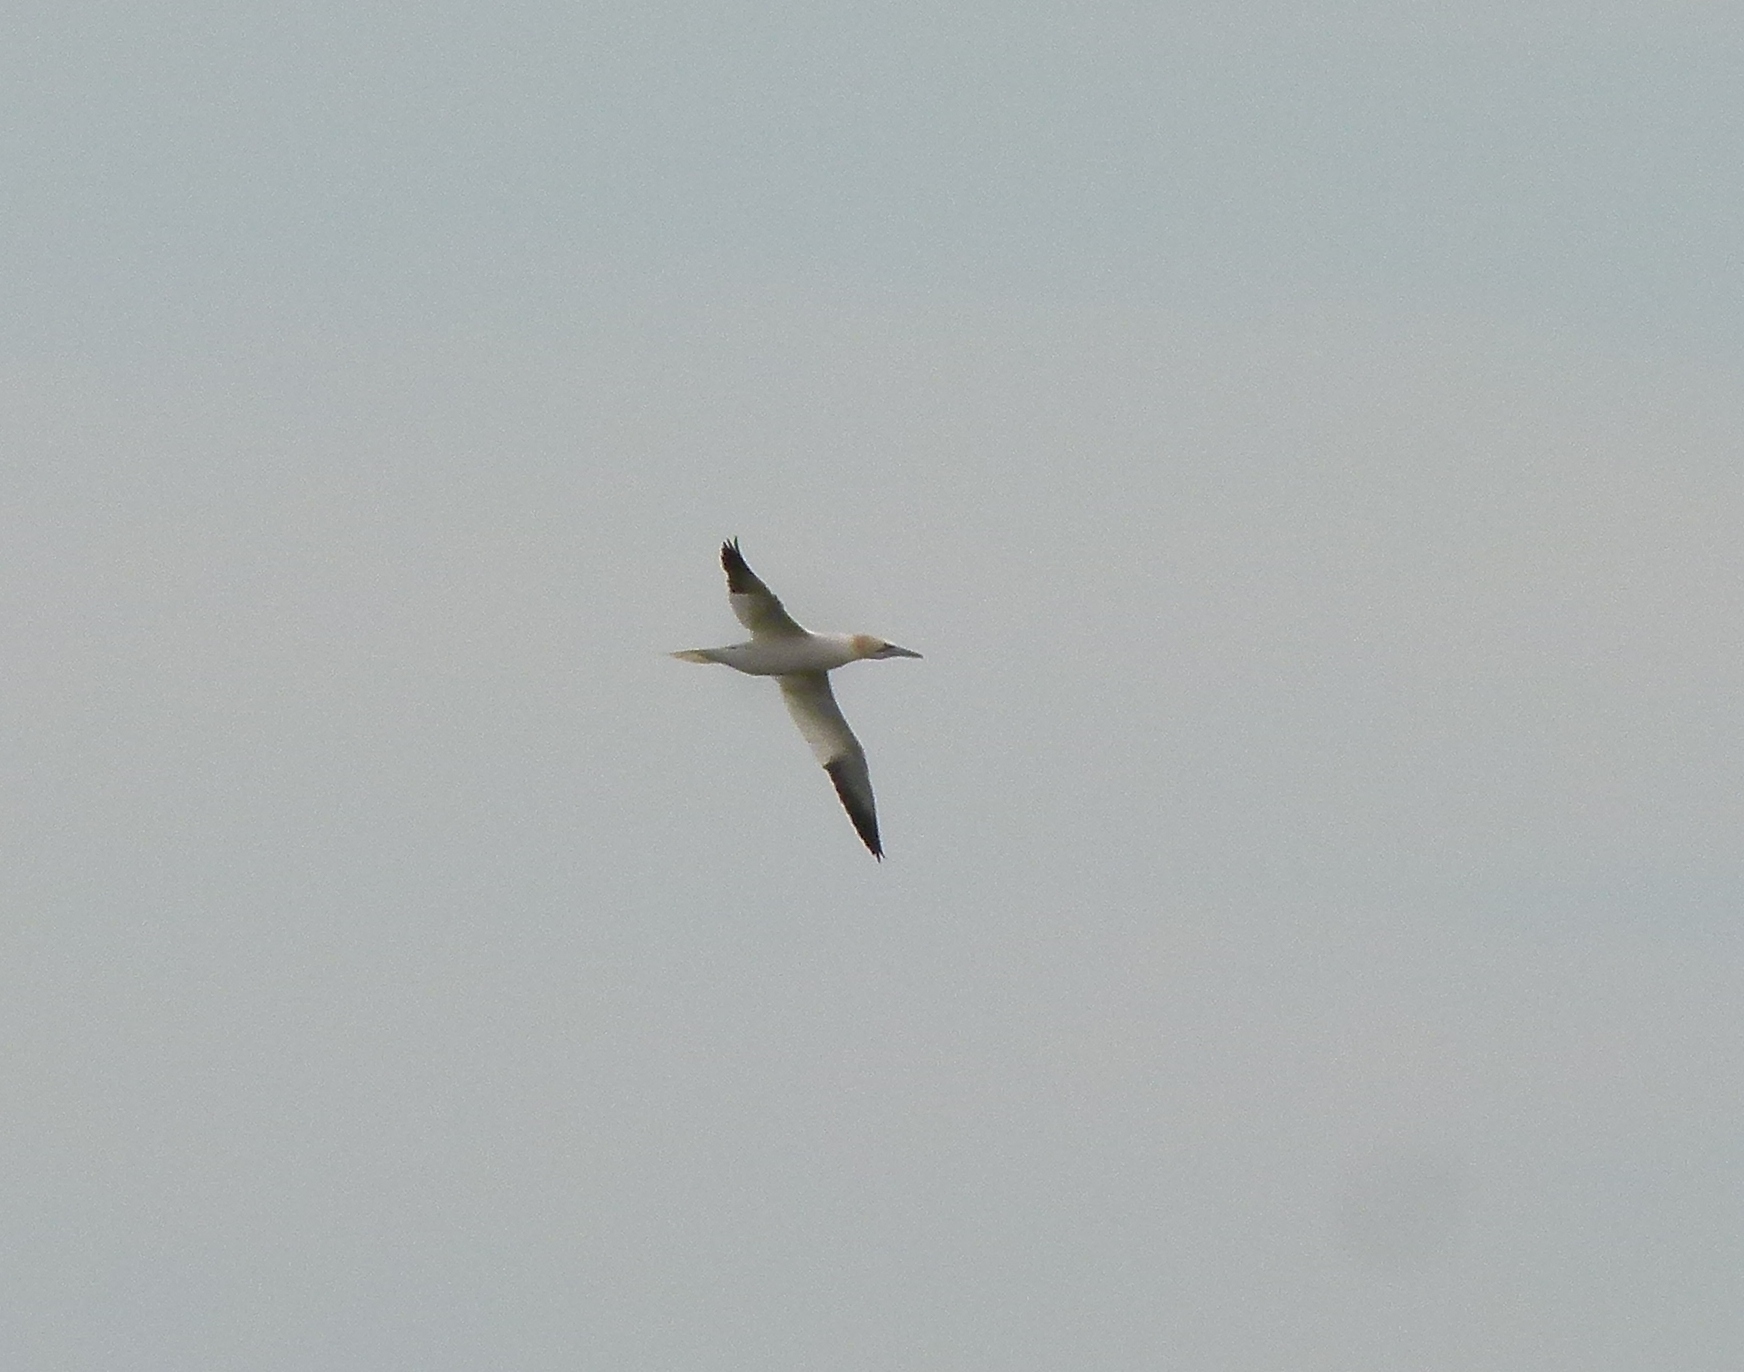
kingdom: Animalia
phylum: Chordata
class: Aves
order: Suliformes
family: Sulidae
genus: Morus
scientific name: Morus bassanus
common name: Northern gannet
